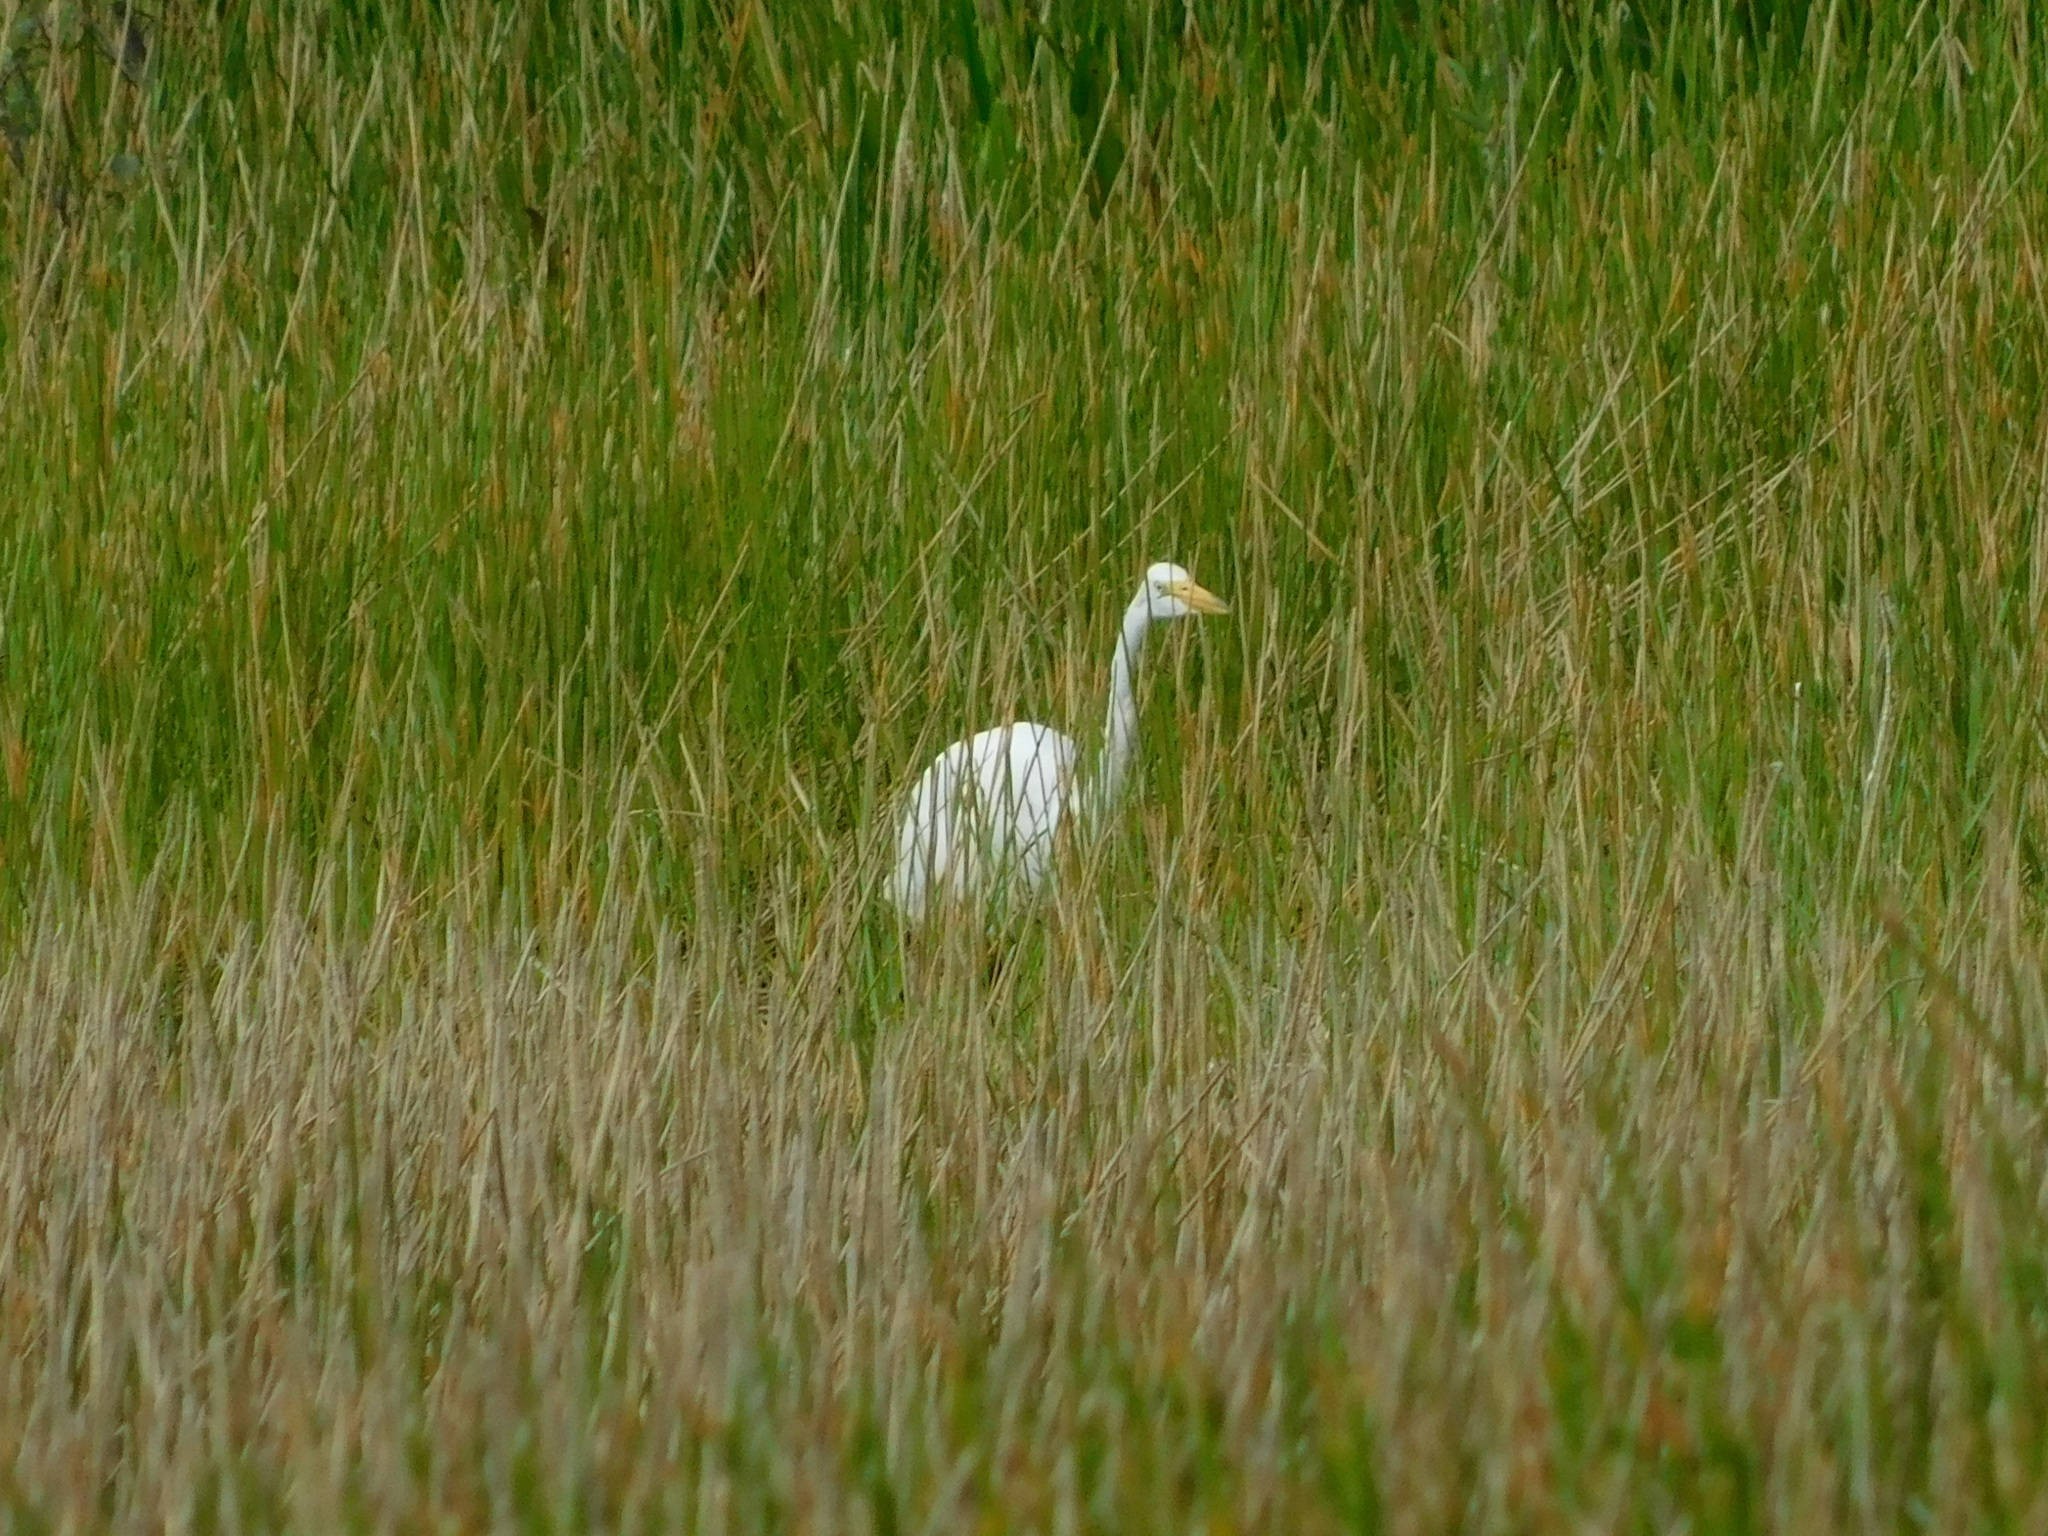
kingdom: Animalia
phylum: Chordata
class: Aves
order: Pelecaniformes
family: Ardeidae
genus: Ardea
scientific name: Ardea alba
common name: Great egret
